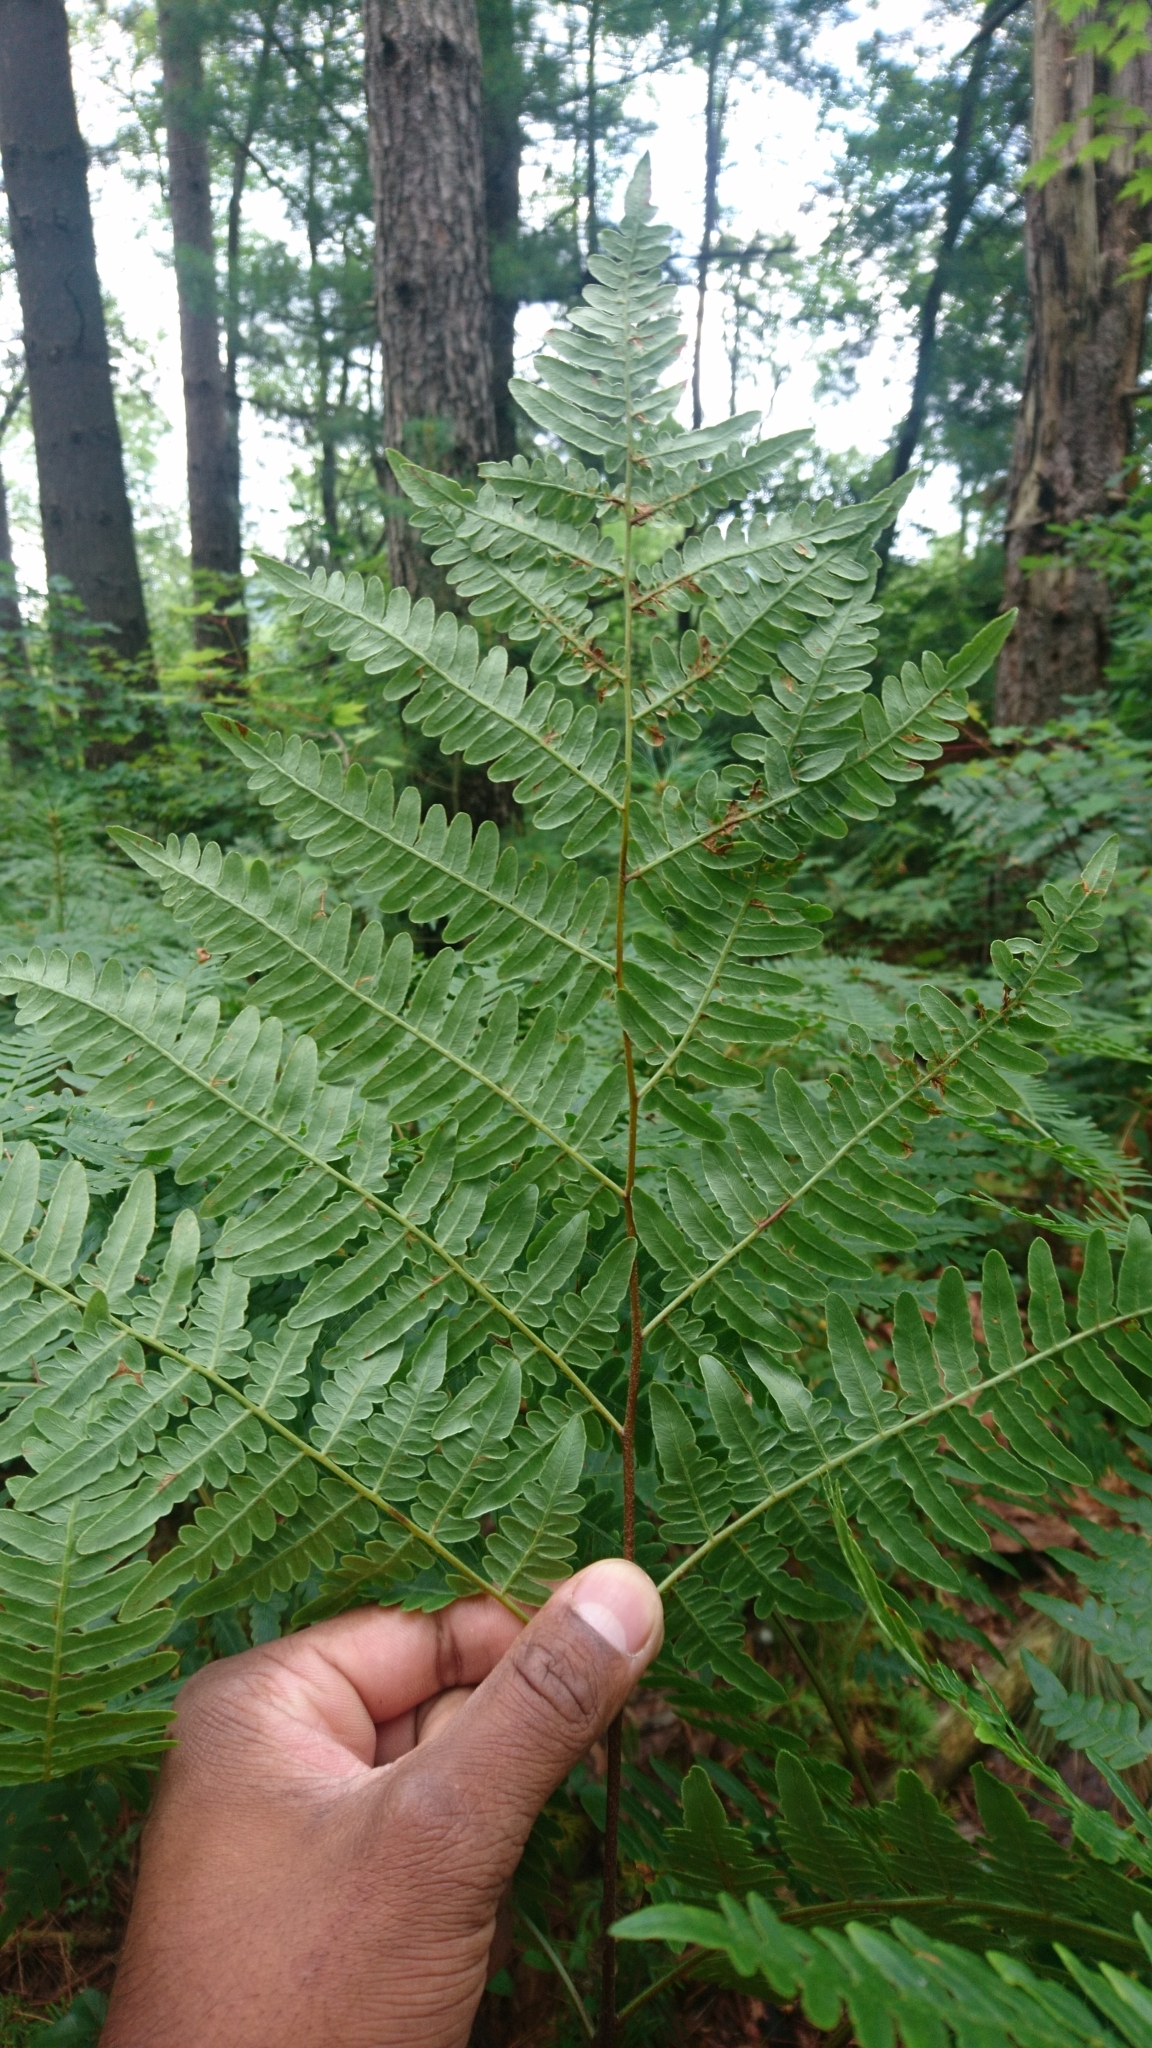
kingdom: Plantae
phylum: Tracheophyta
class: Polypodiopsida
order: Polypodiales
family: Dennstaedtiaceae
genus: Pteridium
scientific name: Pteridium aquilinum
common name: Bracken
